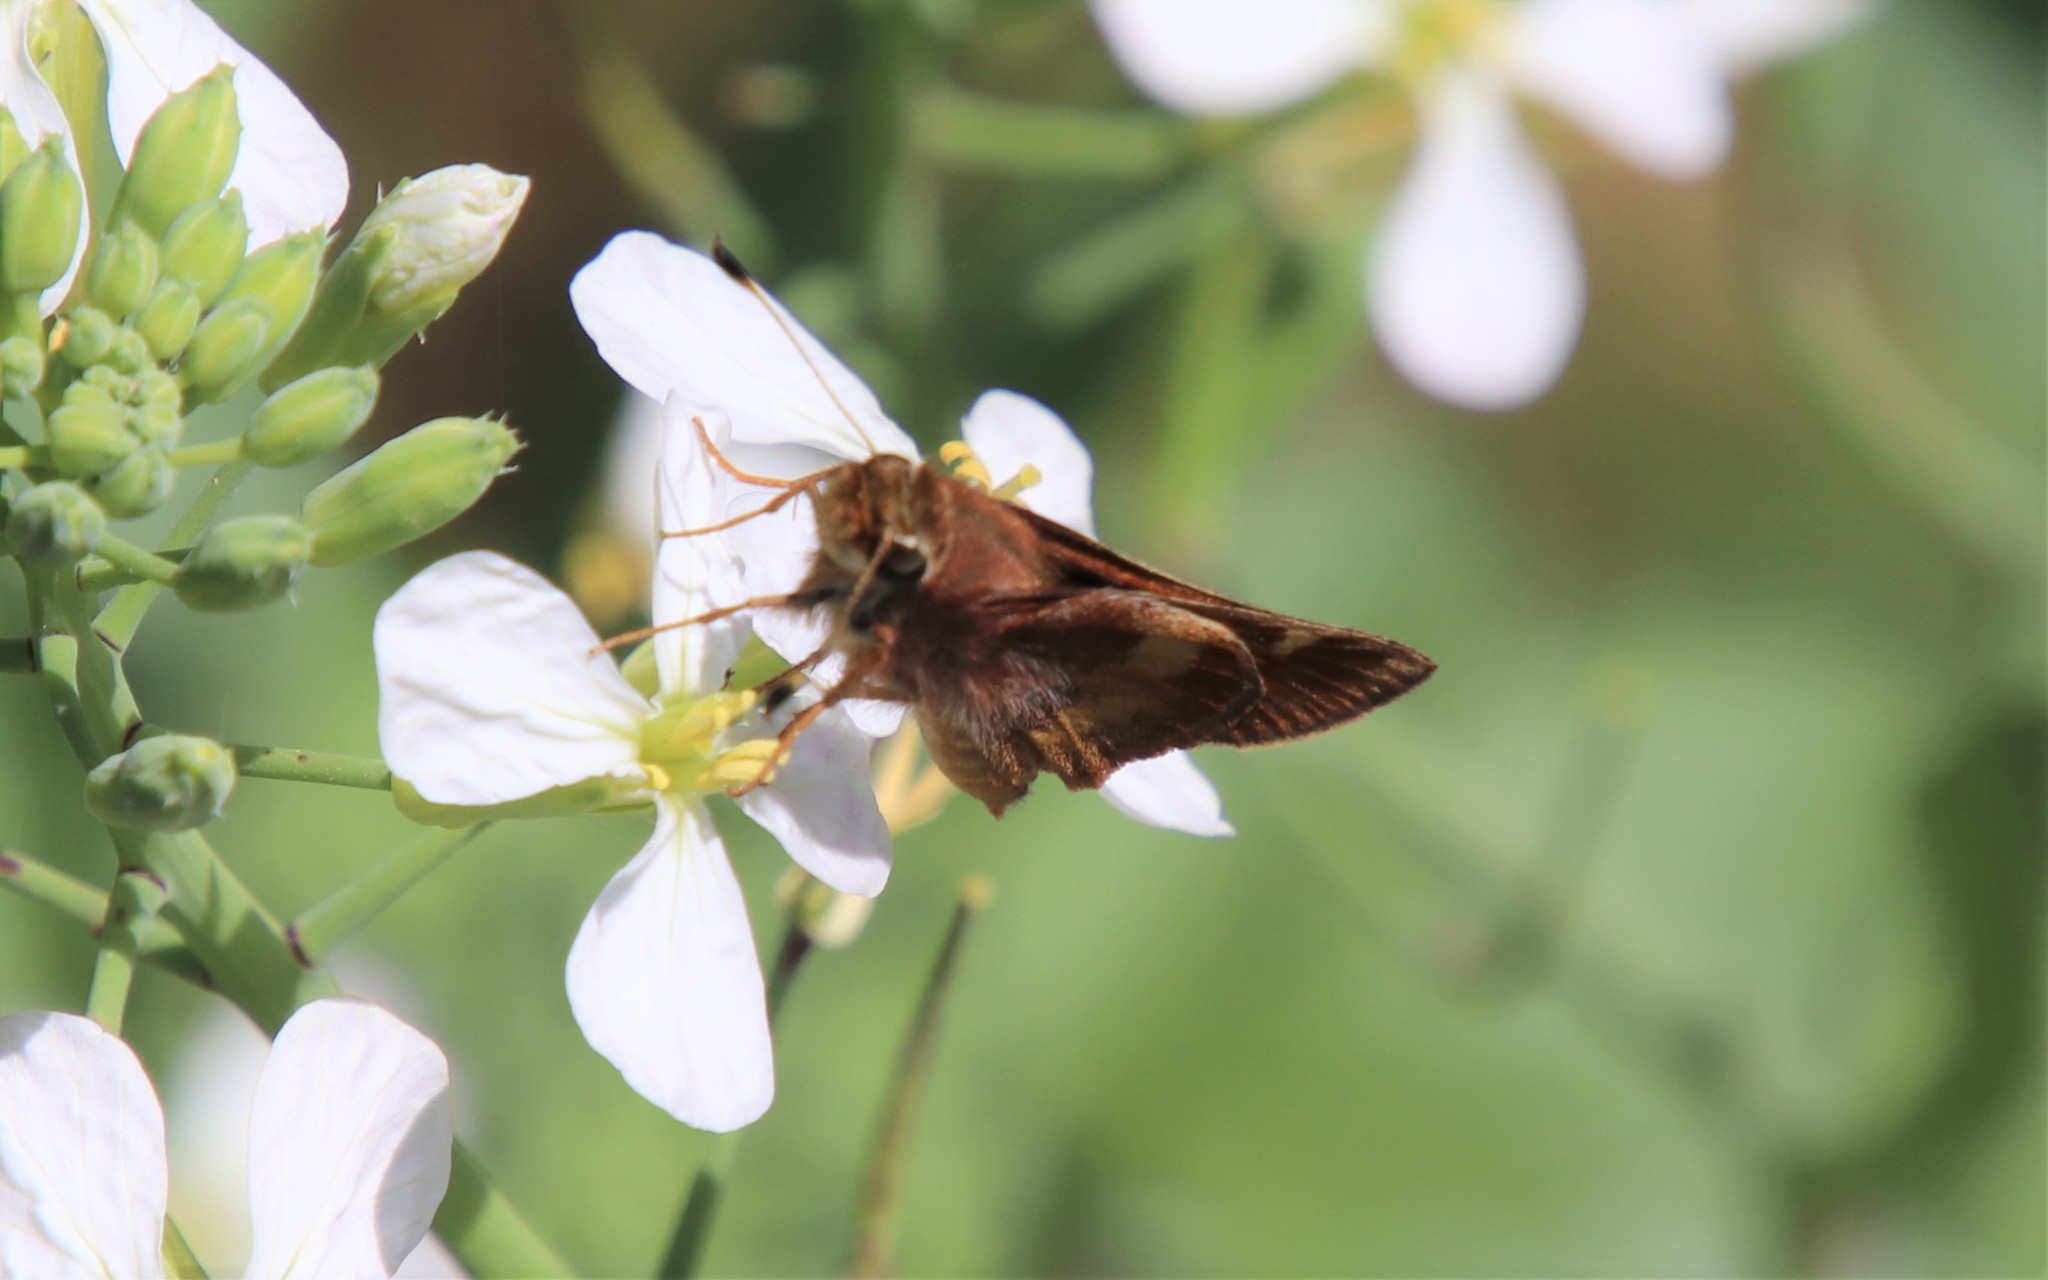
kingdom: Animalia
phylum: Arthropoda
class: Insecta
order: Lepidoptera
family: Hesperiidae
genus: Lon
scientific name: Lon melane
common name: Umber skipper
